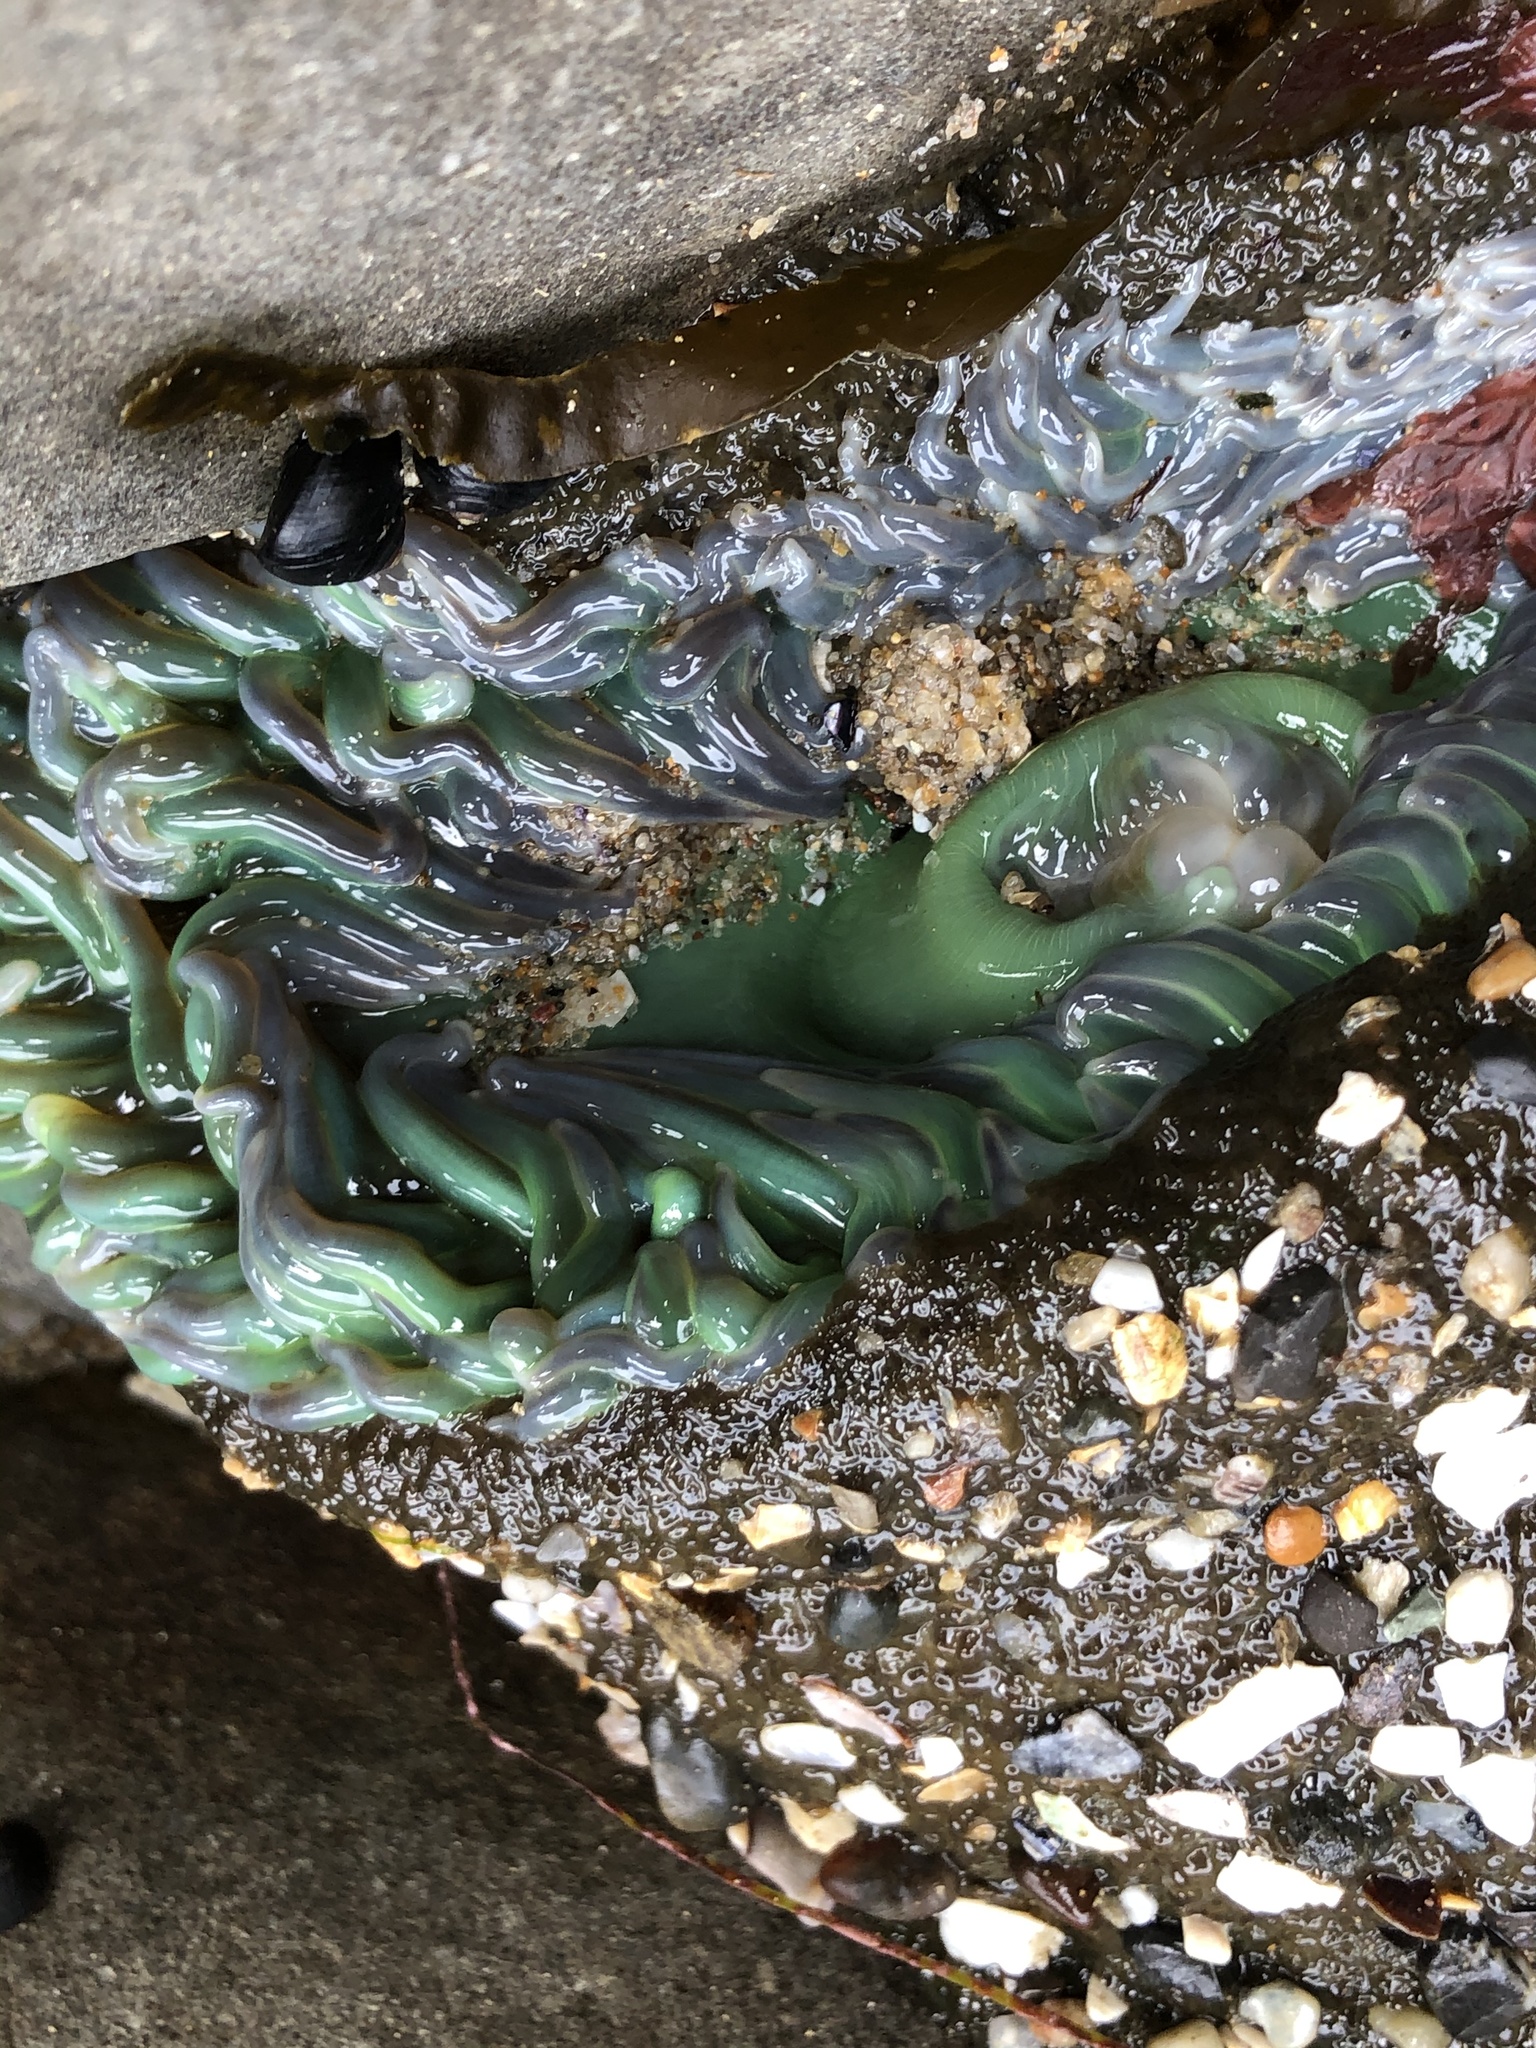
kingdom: Animalia
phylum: Cnidaria
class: Anthozoa
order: Actiniaria
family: Actiniidae
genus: Anthopleura
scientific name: Anthopleura xanthogrammica
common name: Giant green anemone
